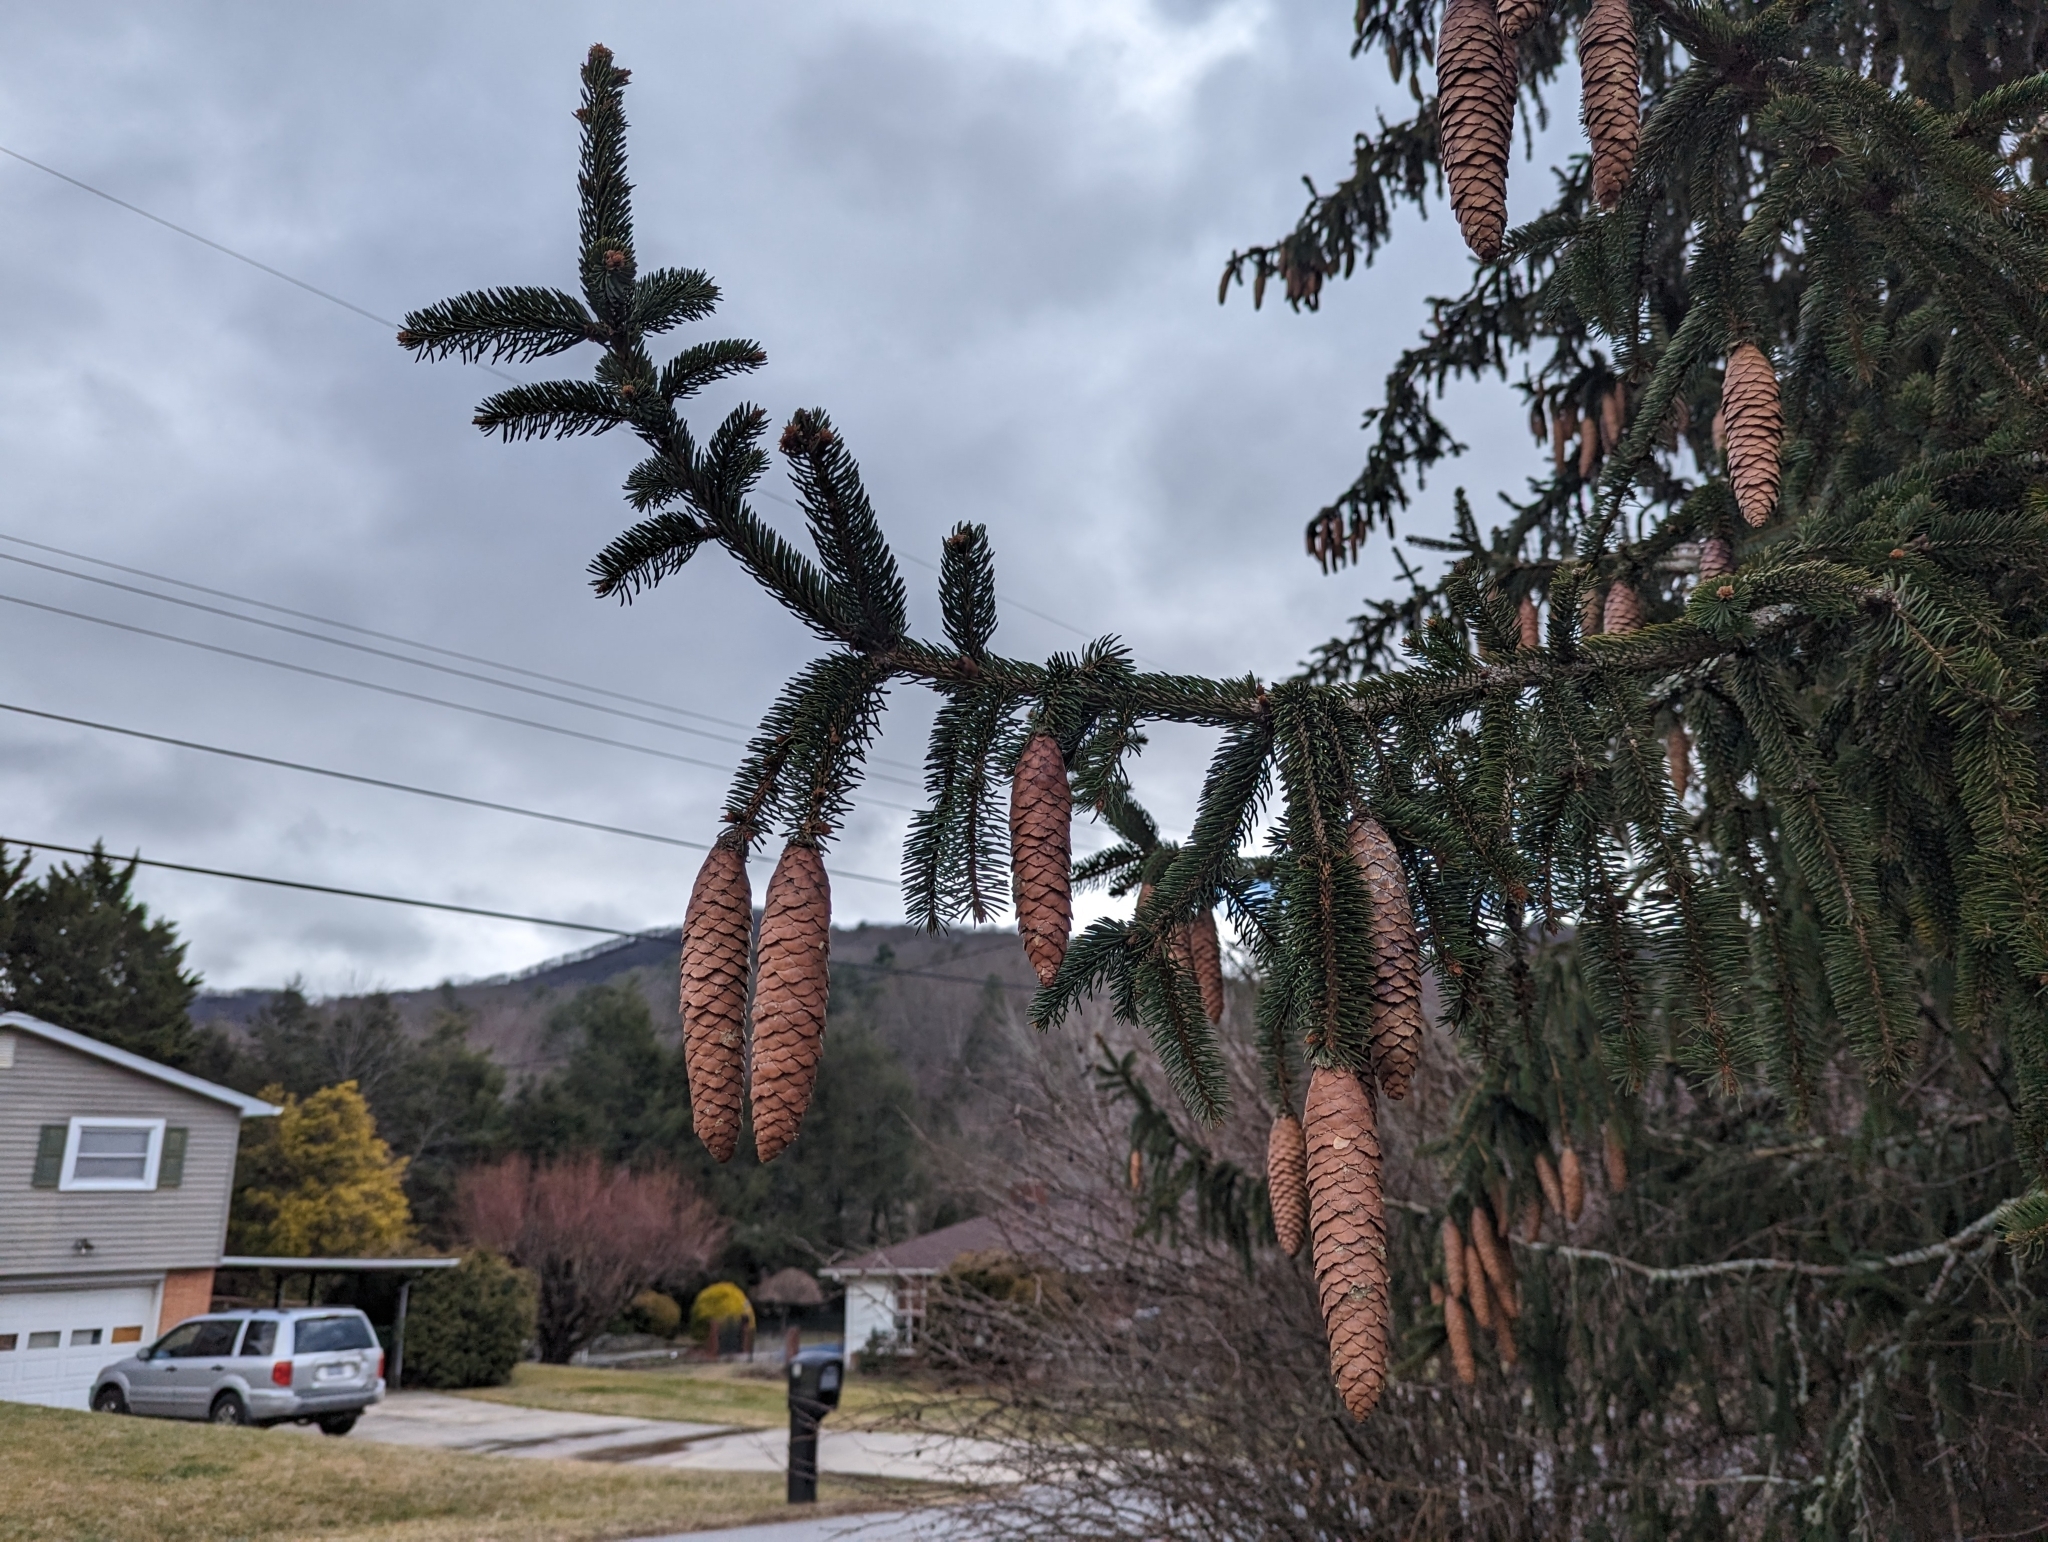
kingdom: Plantae
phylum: Tracheophyta
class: Pinopsida
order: Pinales
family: Pinaceae
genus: Picea
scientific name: Picea abies
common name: Norway spruce
